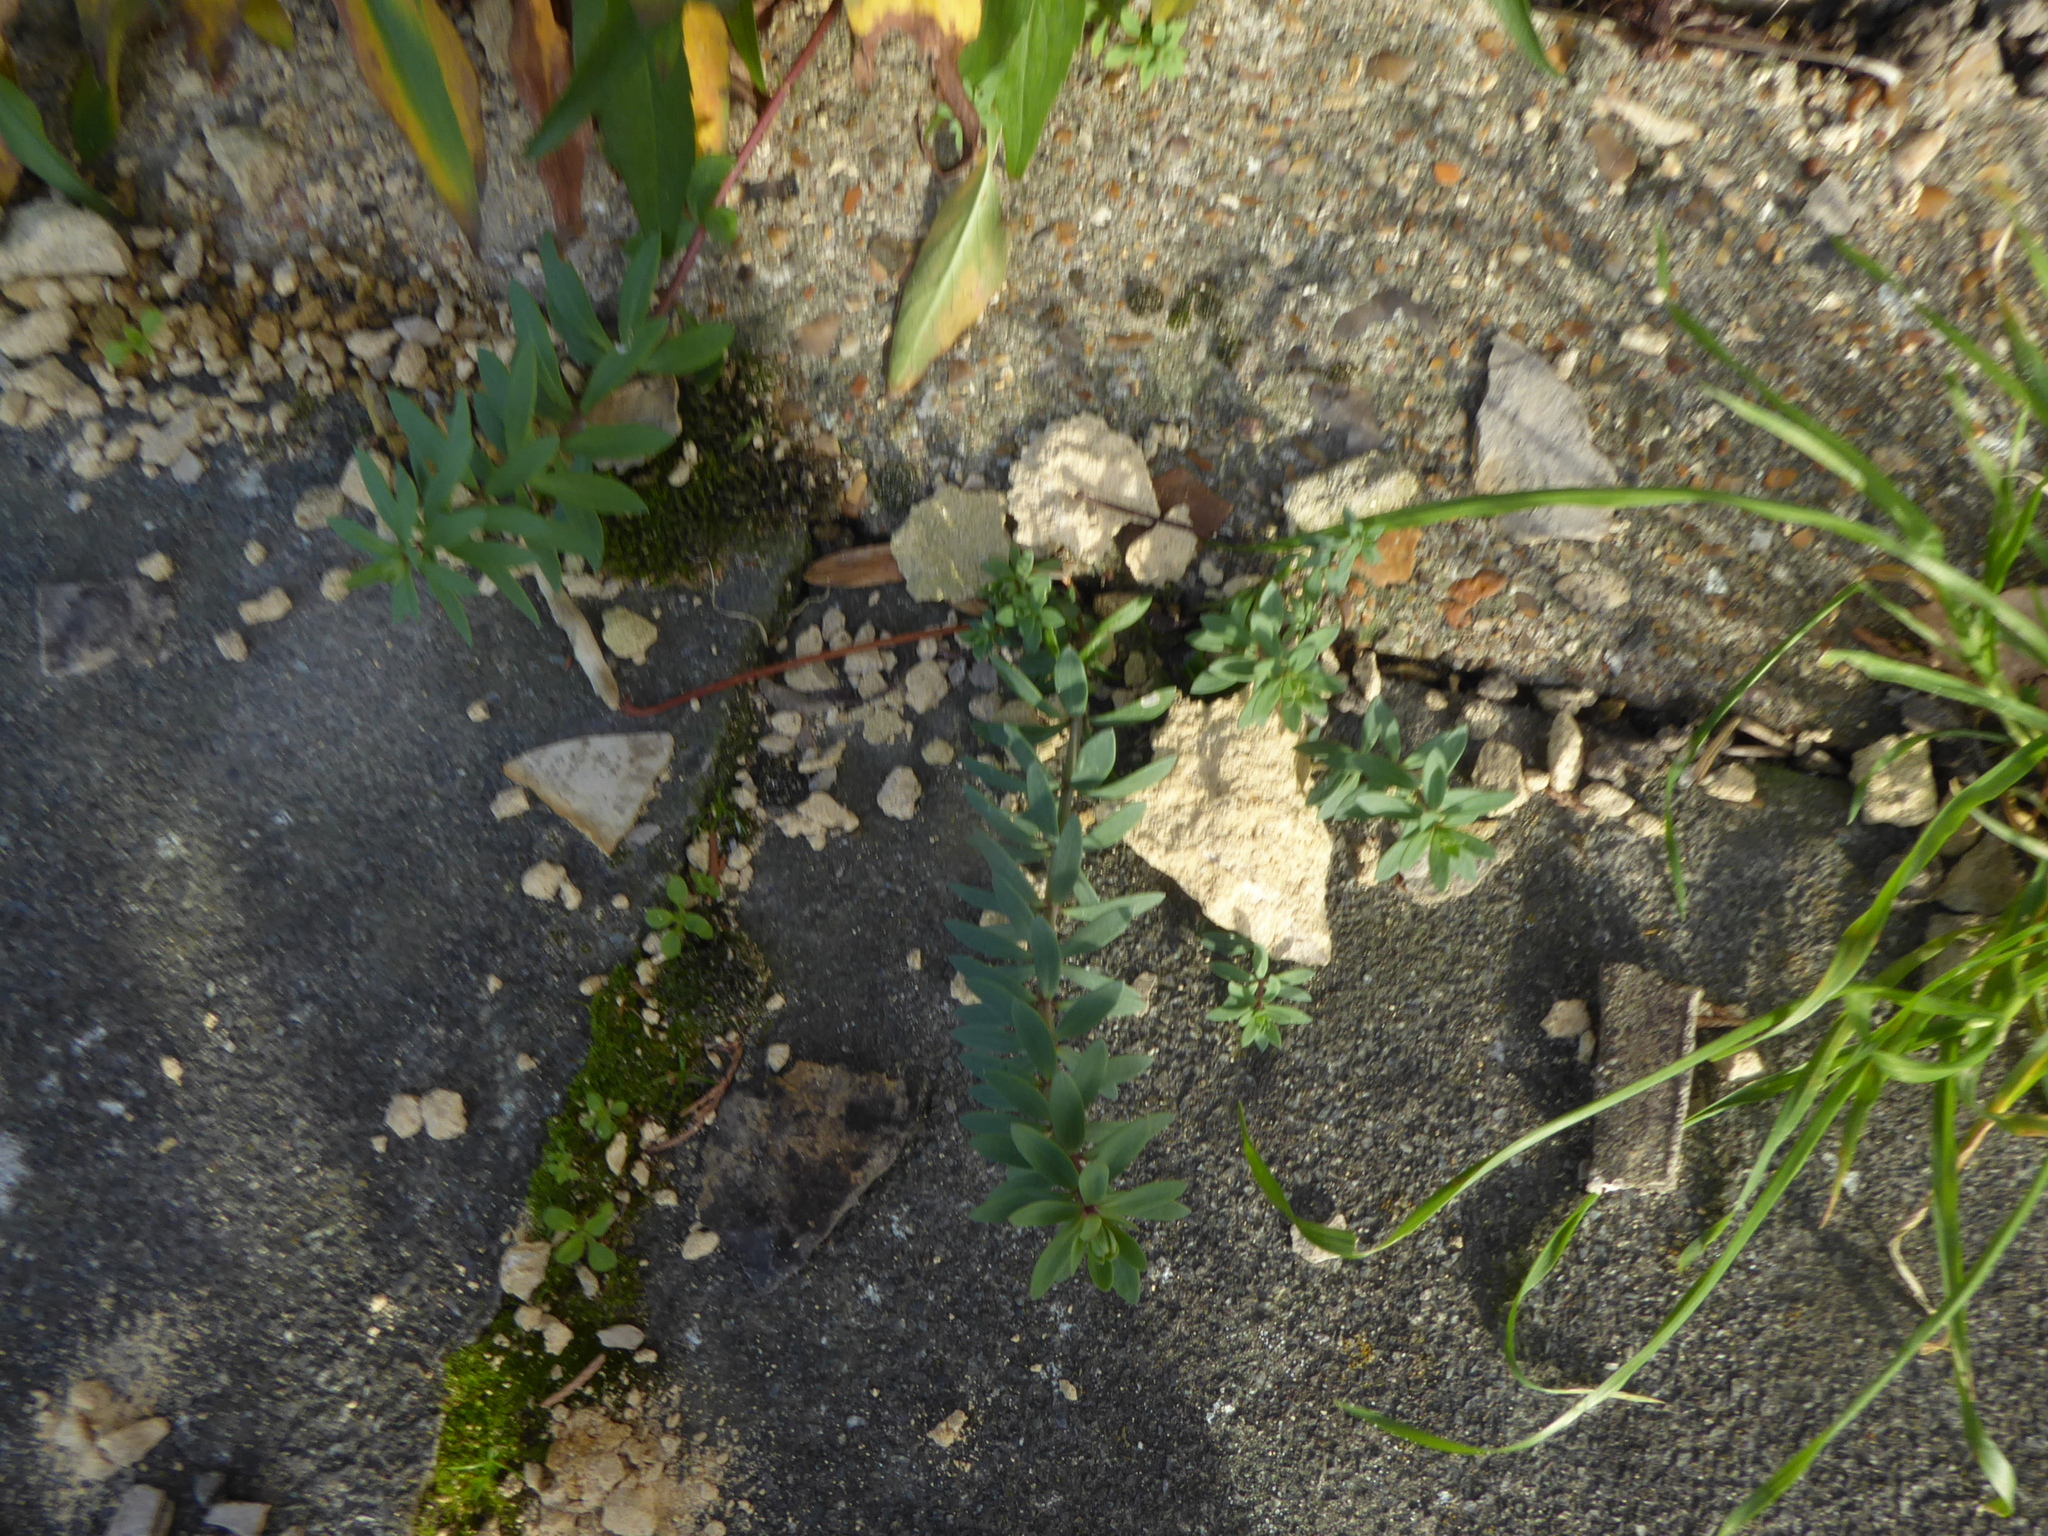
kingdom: Plantae
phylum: Tracheophyta
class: Magnoliopsida
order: Lamiales
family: Plantaginaceae
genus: Linaria
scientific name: Linaria purpurea
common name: Purple toadflax
